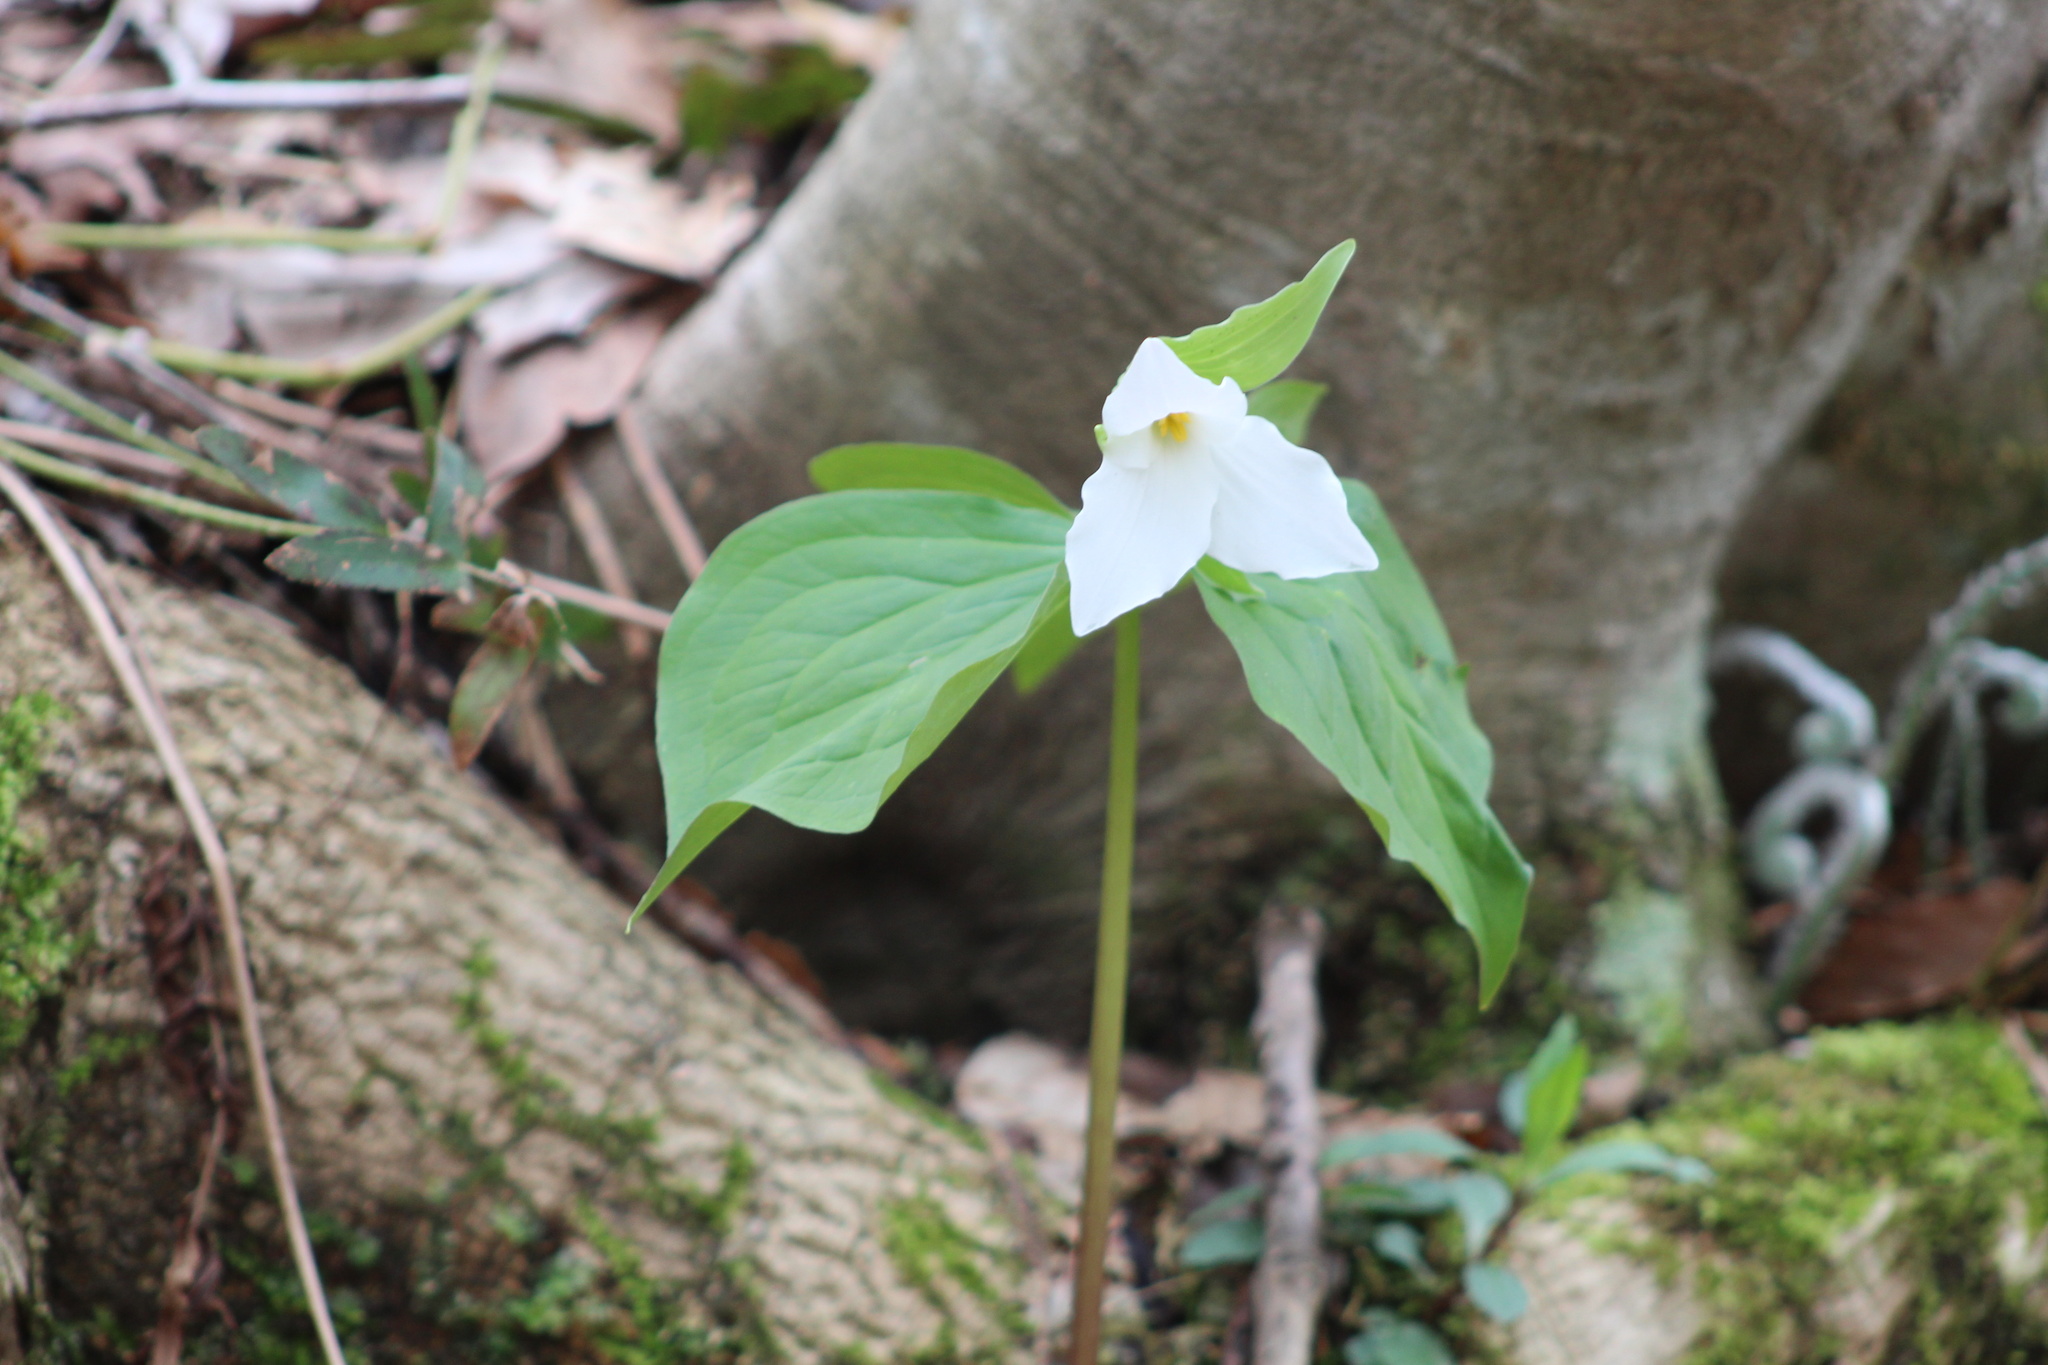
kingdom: Plantae
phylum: Tracheophyta
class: Liliopsida
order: Liliales
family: Melanthiaceae
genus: Trillium
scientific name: Trillium grandiflorum
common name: Great white trillium
